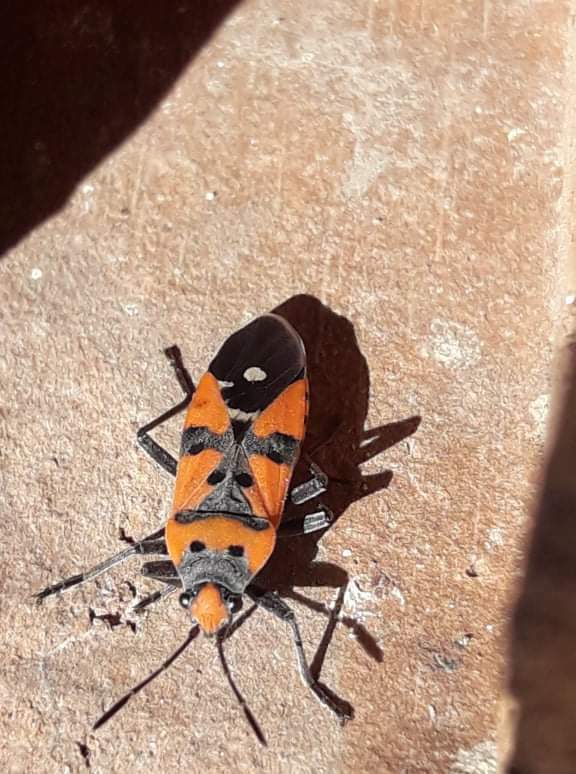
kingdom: Animalia
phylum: Arthropoda
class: Insecta
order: Hemiptera
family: Lygaeidae
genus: Lygaeus
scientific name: Lygaeus simulans
